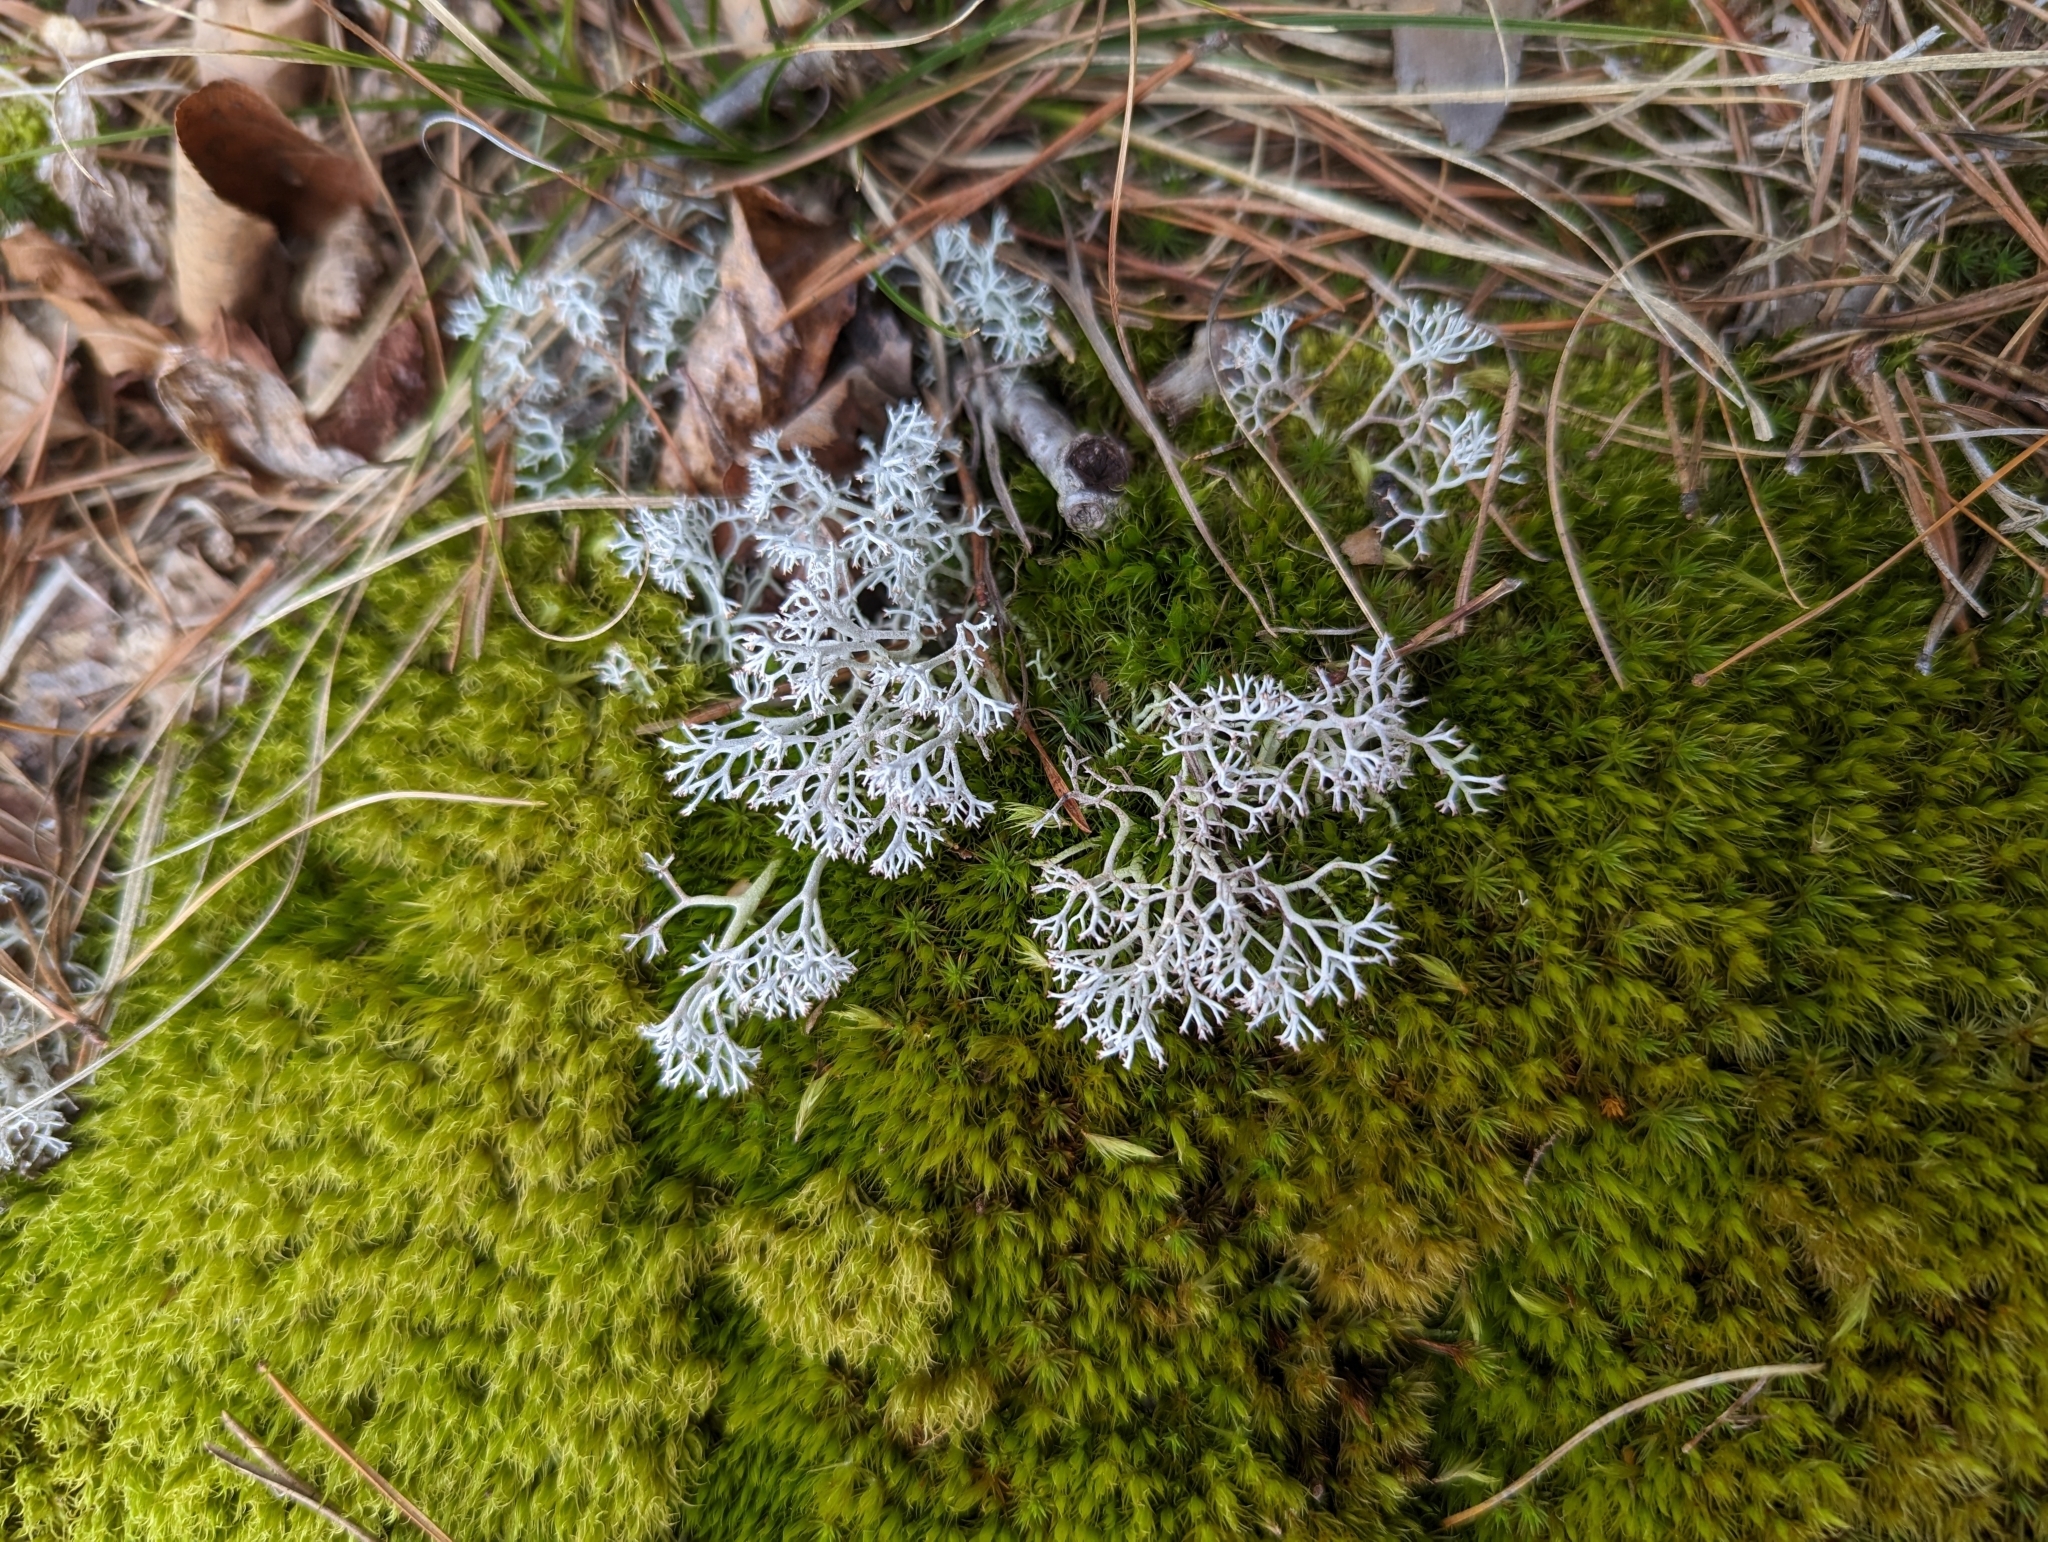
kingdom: Fungi
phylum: Ascomycota
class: Lecanoromycetes
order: Lecanorales
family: Cladoniaceae
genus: Cladonia
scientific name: Cladonia rangiferina
